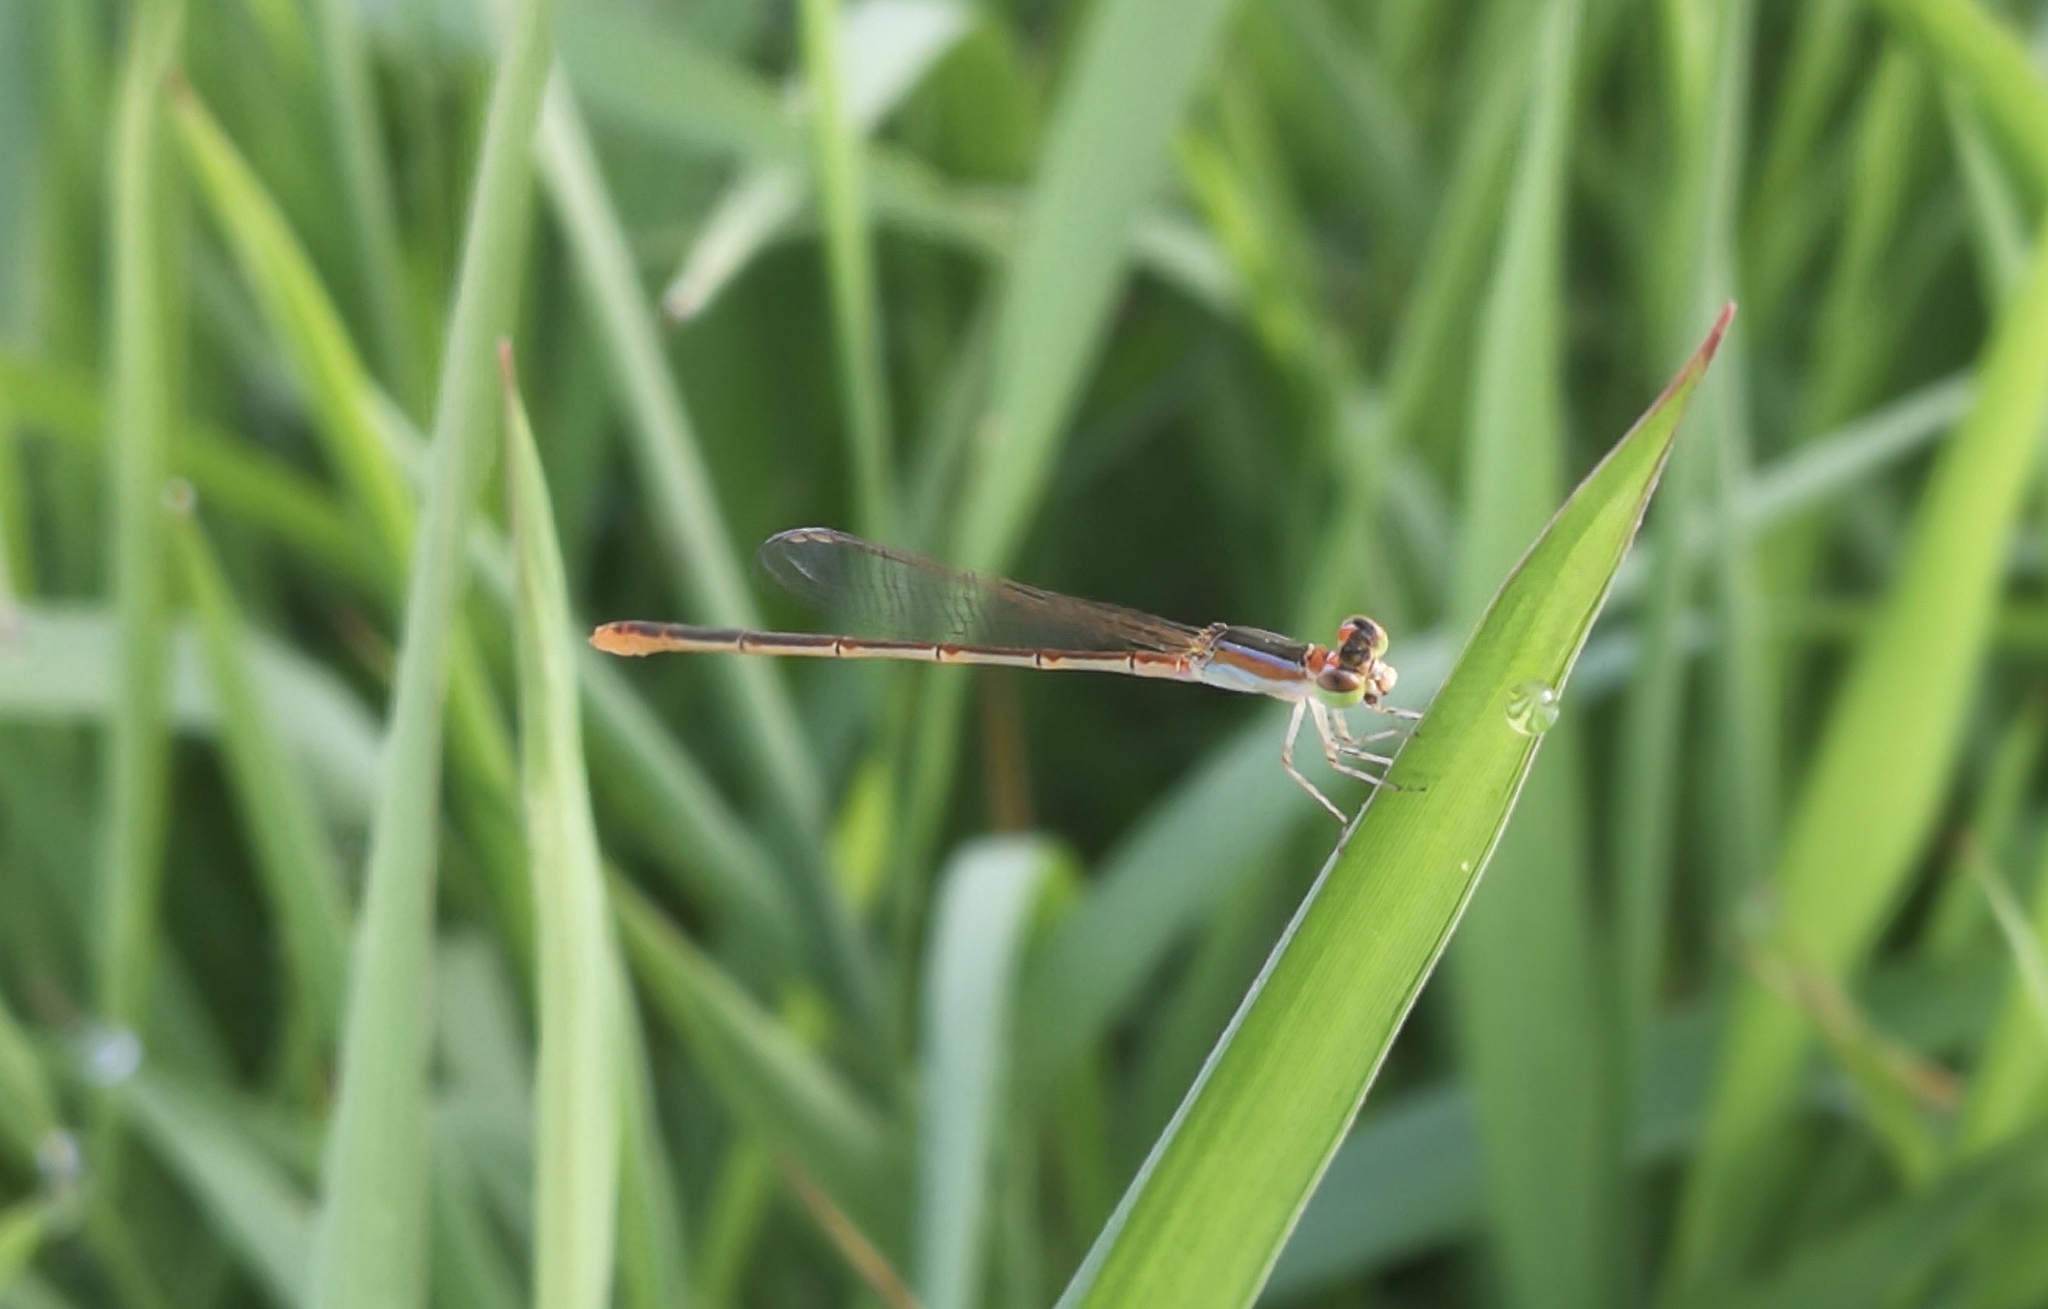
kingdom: Animalia
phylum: Arthropoda
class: Insecta
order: Odonata
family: Coenagrionidae
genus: Agriocnemis
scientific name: Agriocnemis pygmaea
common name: Pygmy wisp
